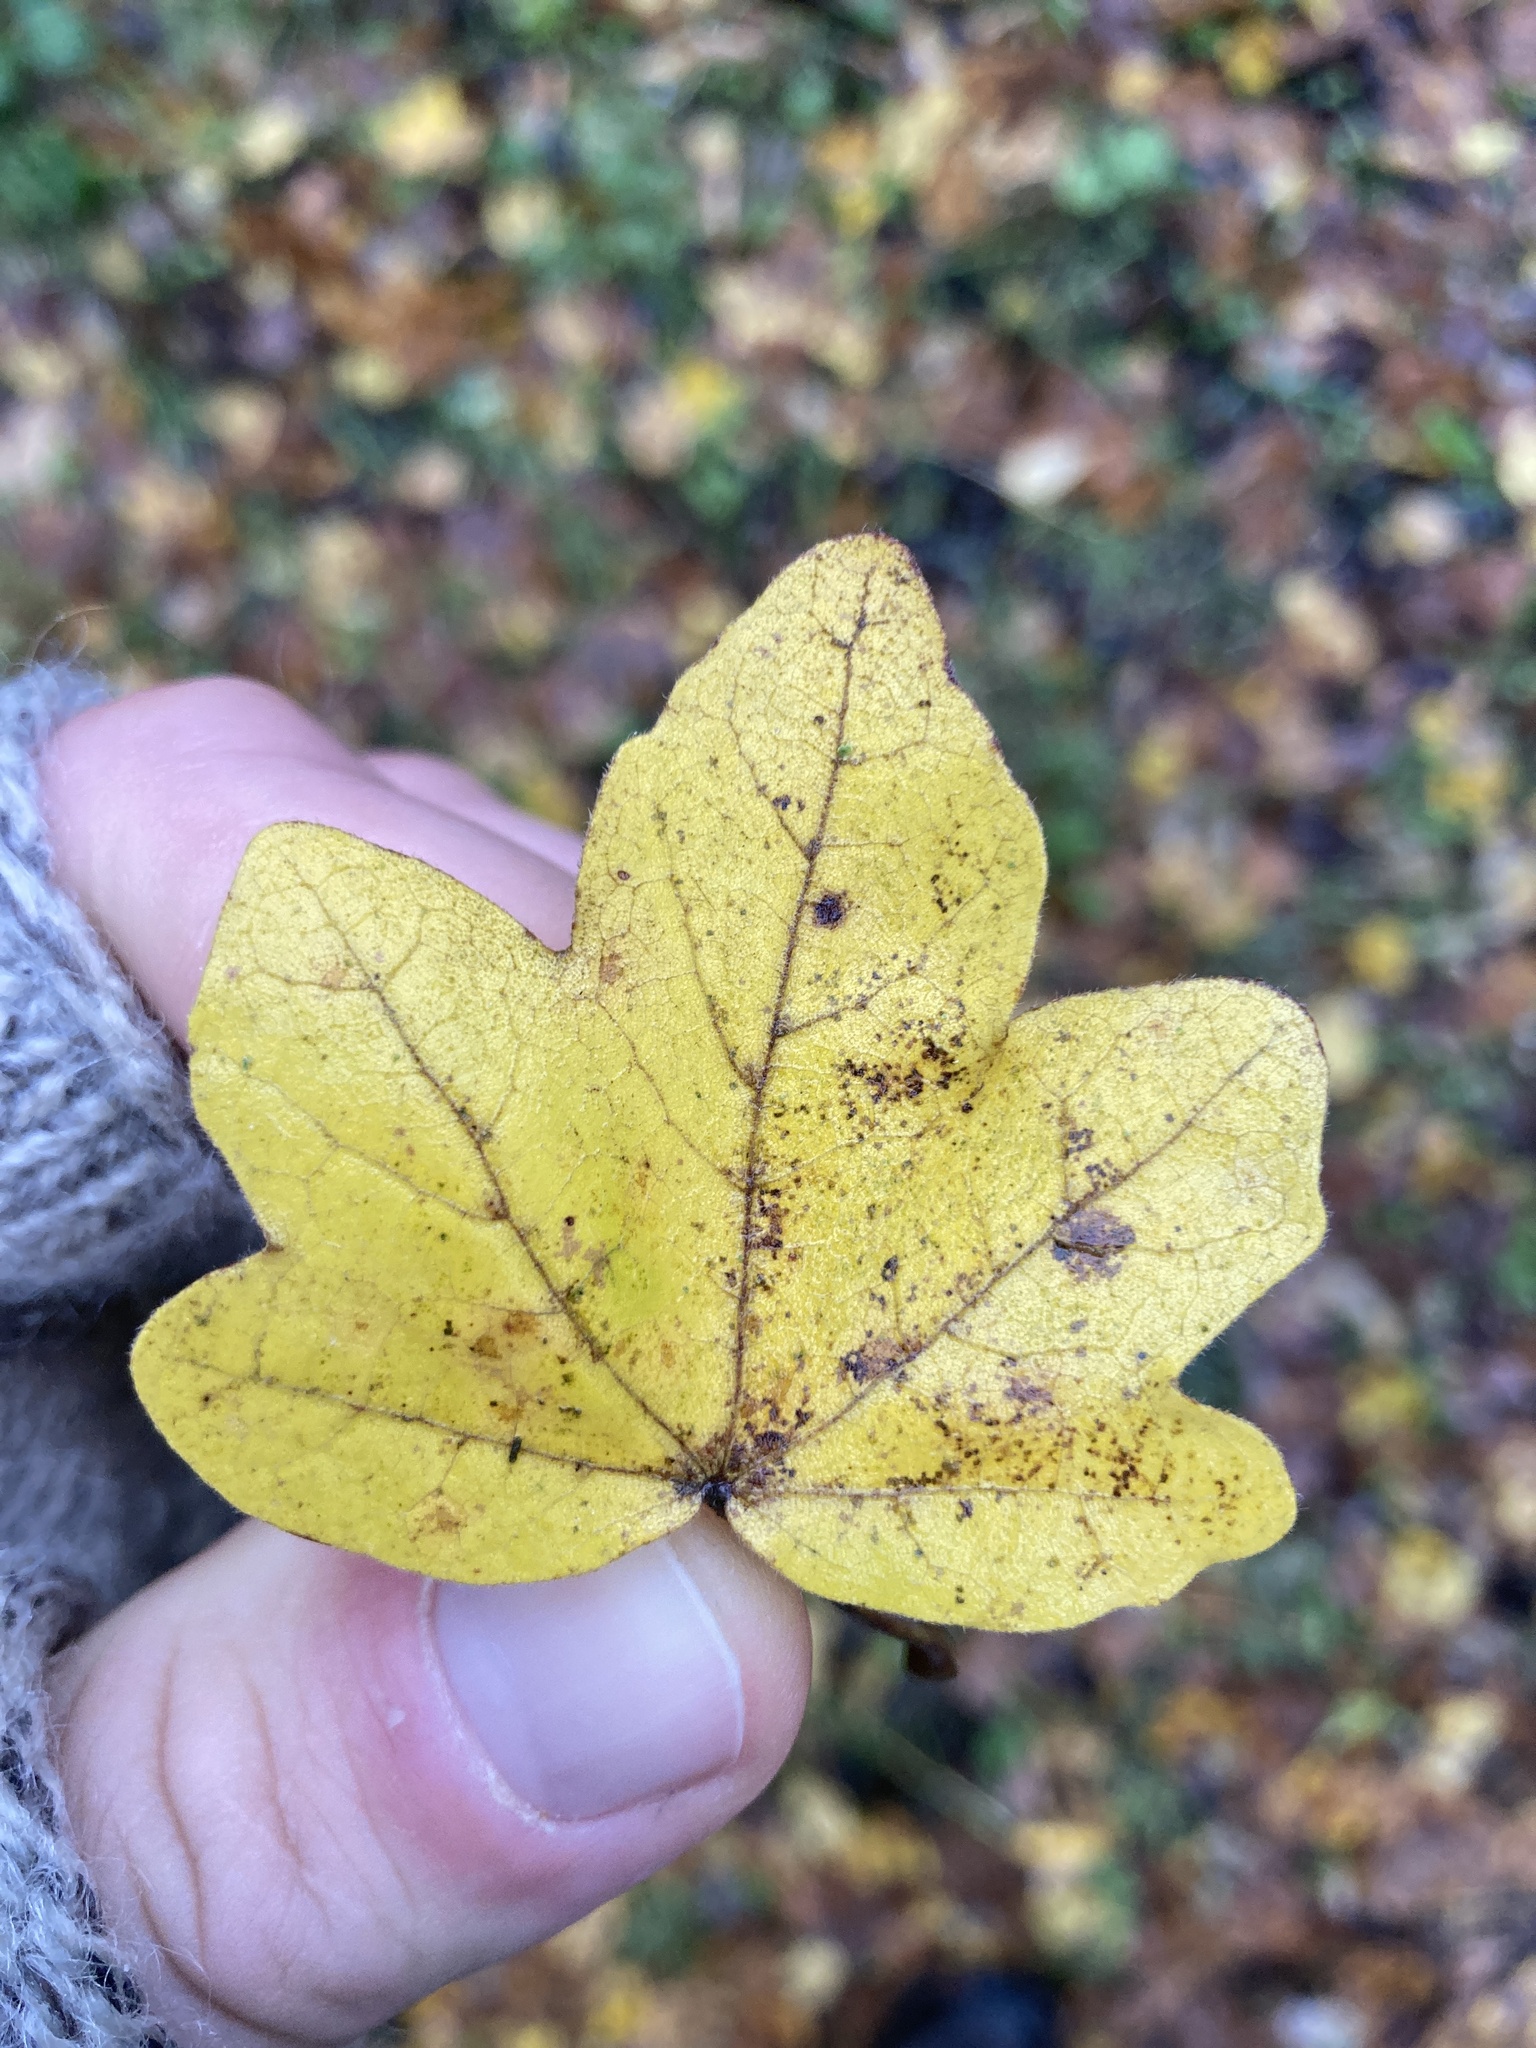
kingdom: Plantae
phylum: Tracheophyta
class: Magnoliopsida
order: Sapindales
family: Sapindaceae
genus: Acer
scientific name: Acer campestre
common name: Field maple
